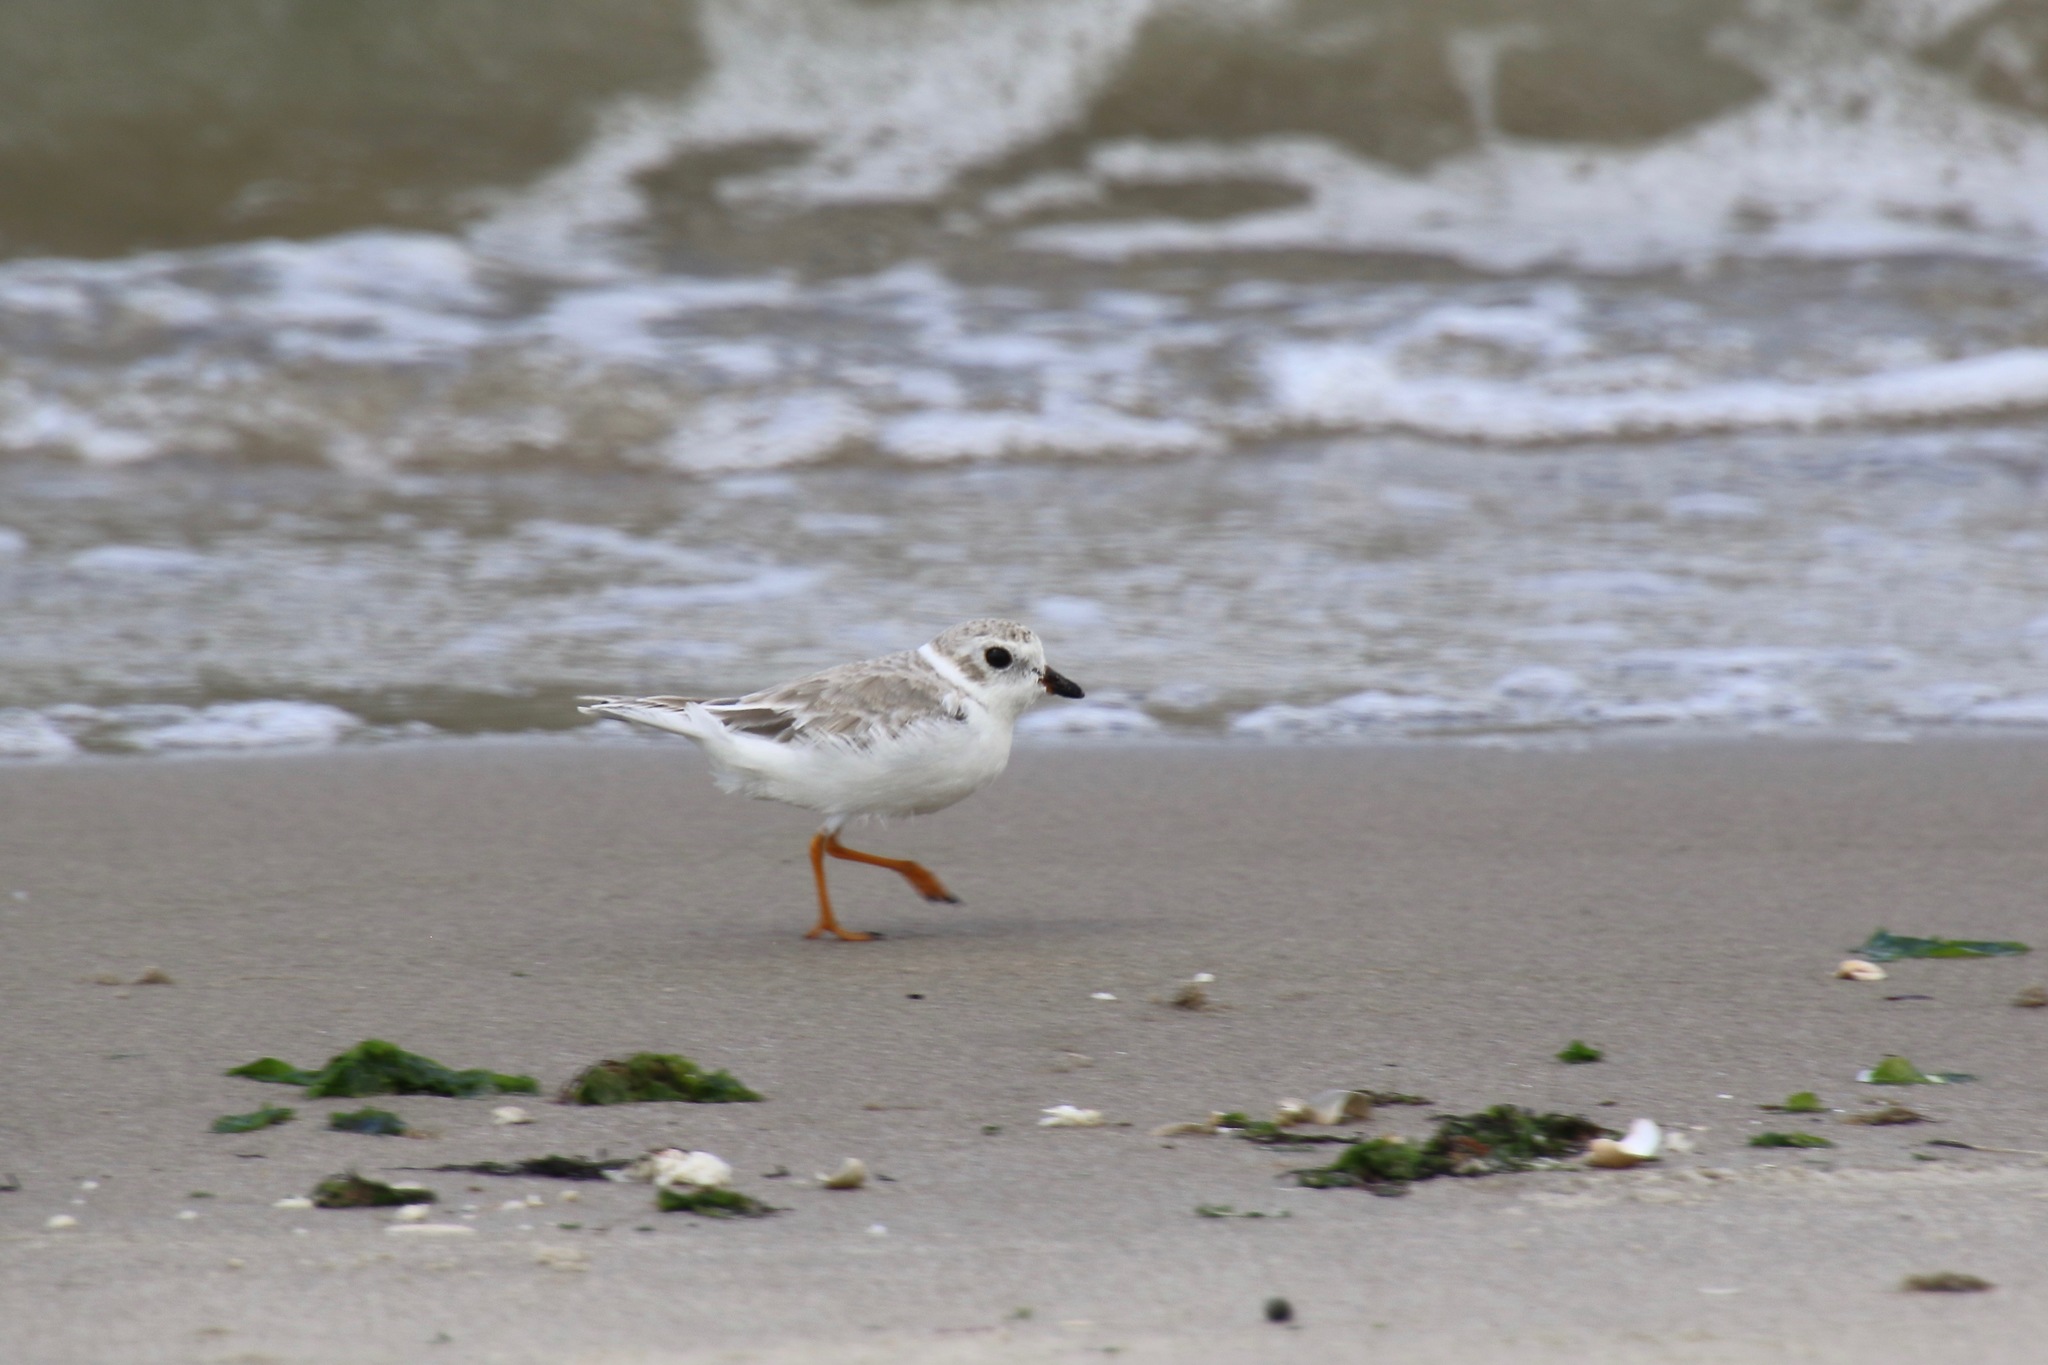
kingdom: Animalia
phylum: Chordata
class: Aves
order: Charadriiformes
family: Charadriidae
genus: Charadrius
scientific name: Charadrius melodus
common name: Piping plover
